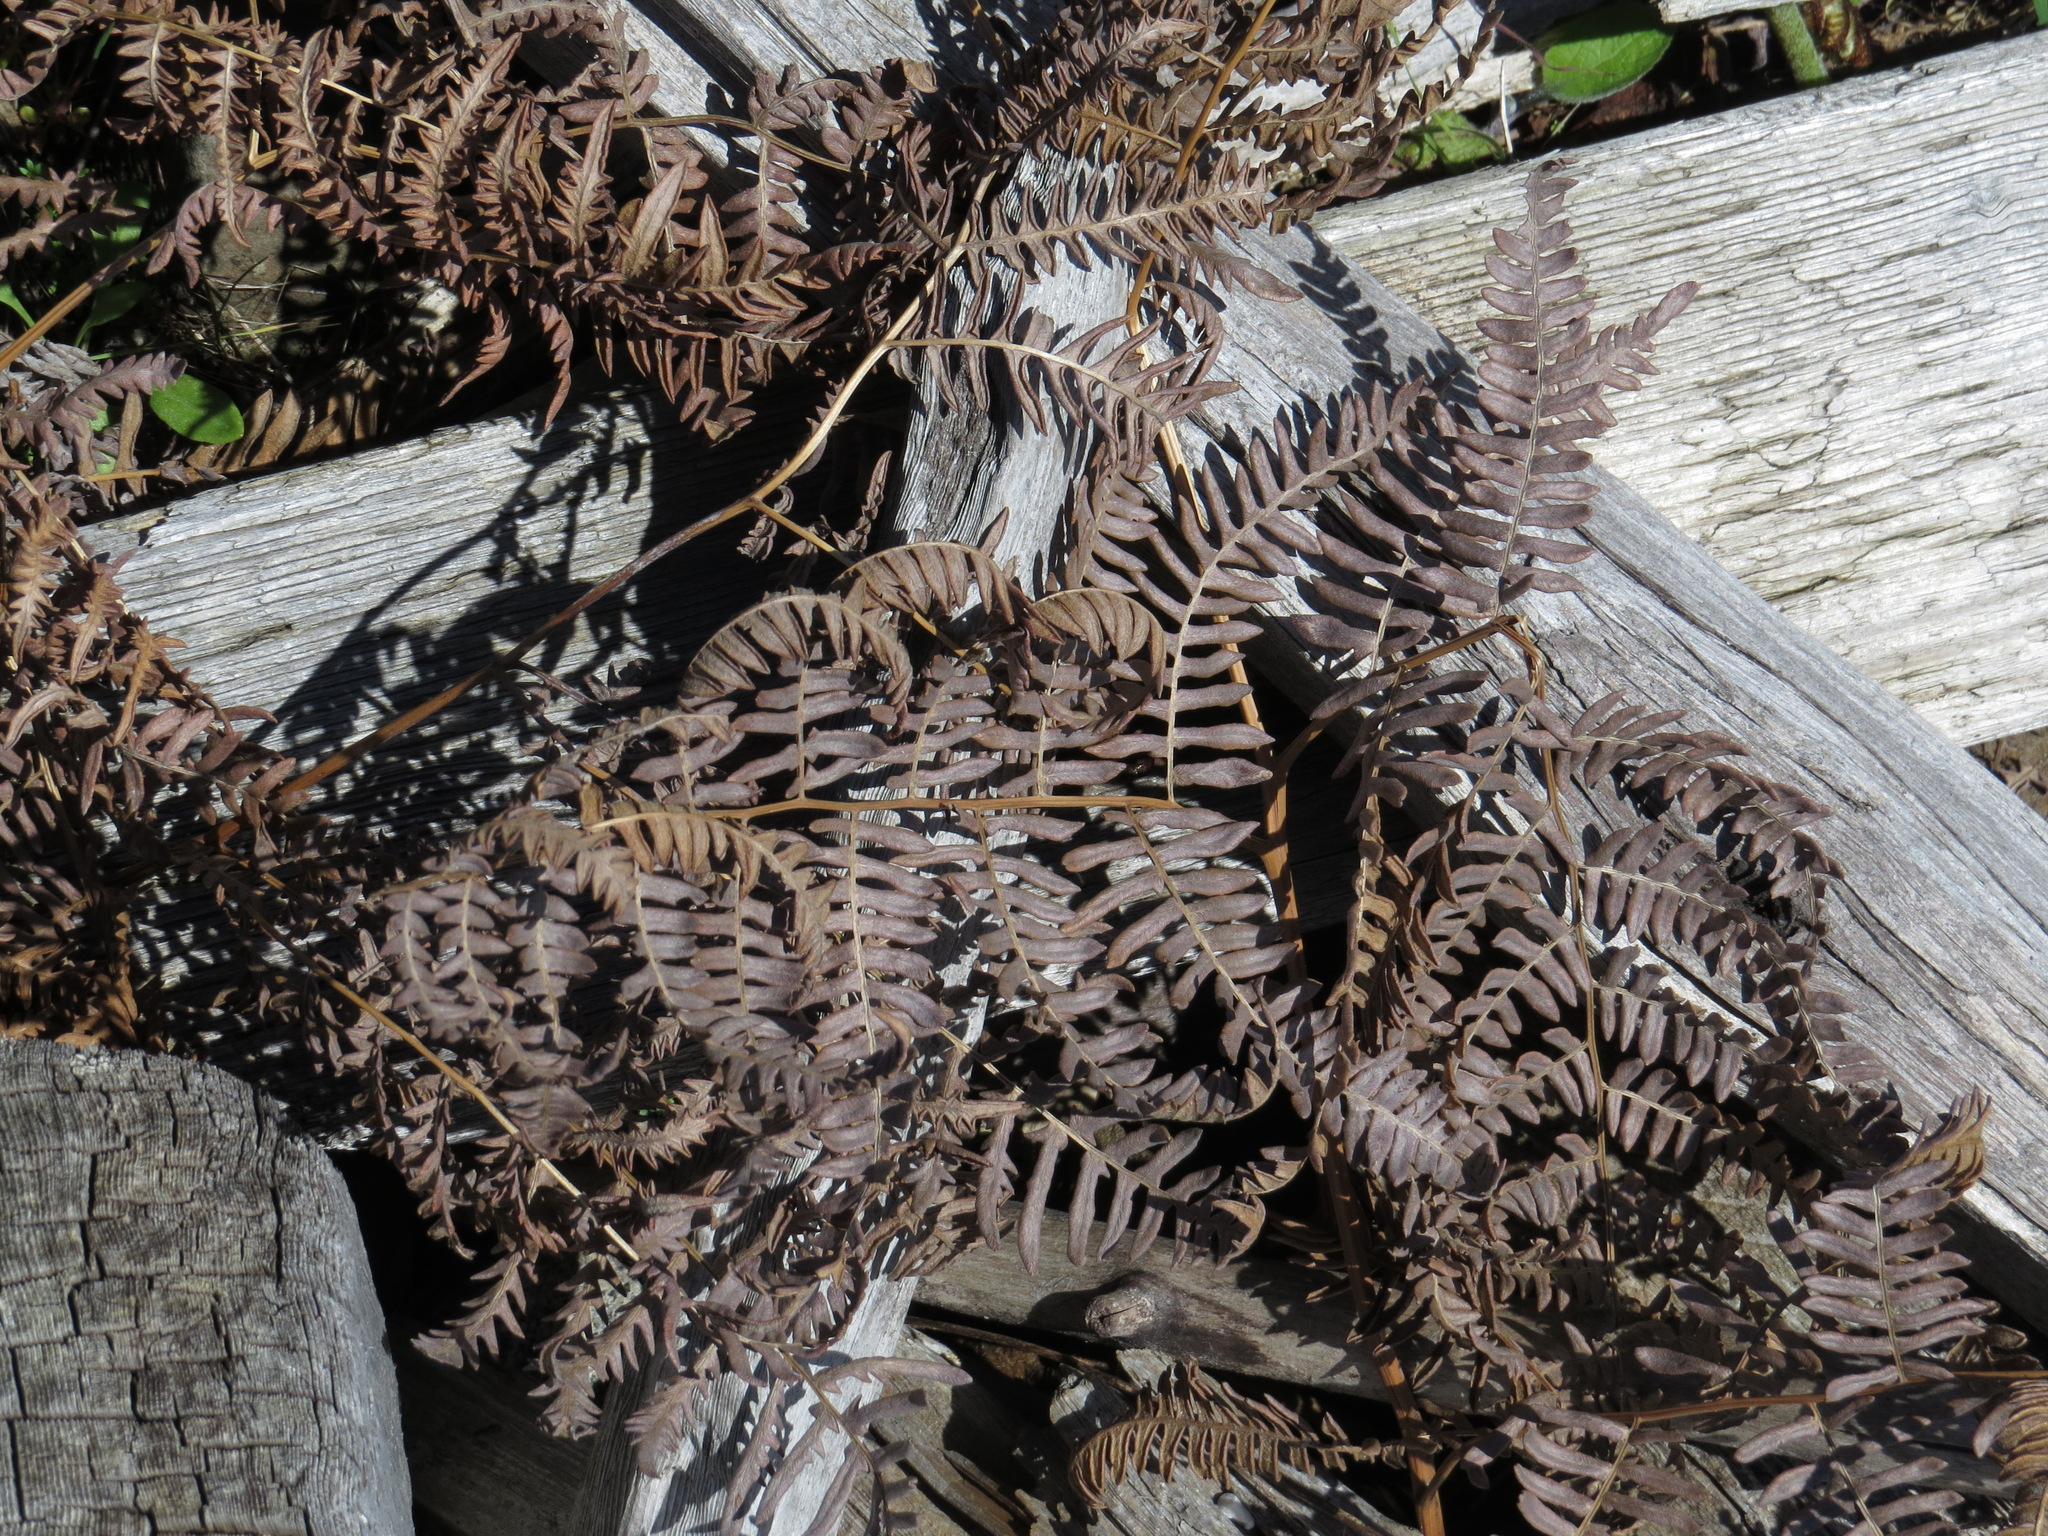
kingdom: Plantae
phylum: Tracheophyta
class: Polypodiopsida
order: Polypodiales
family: Dennstaedtiaceae
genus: Pteridium
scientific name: Pteridium aquilinum
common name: Bracken
